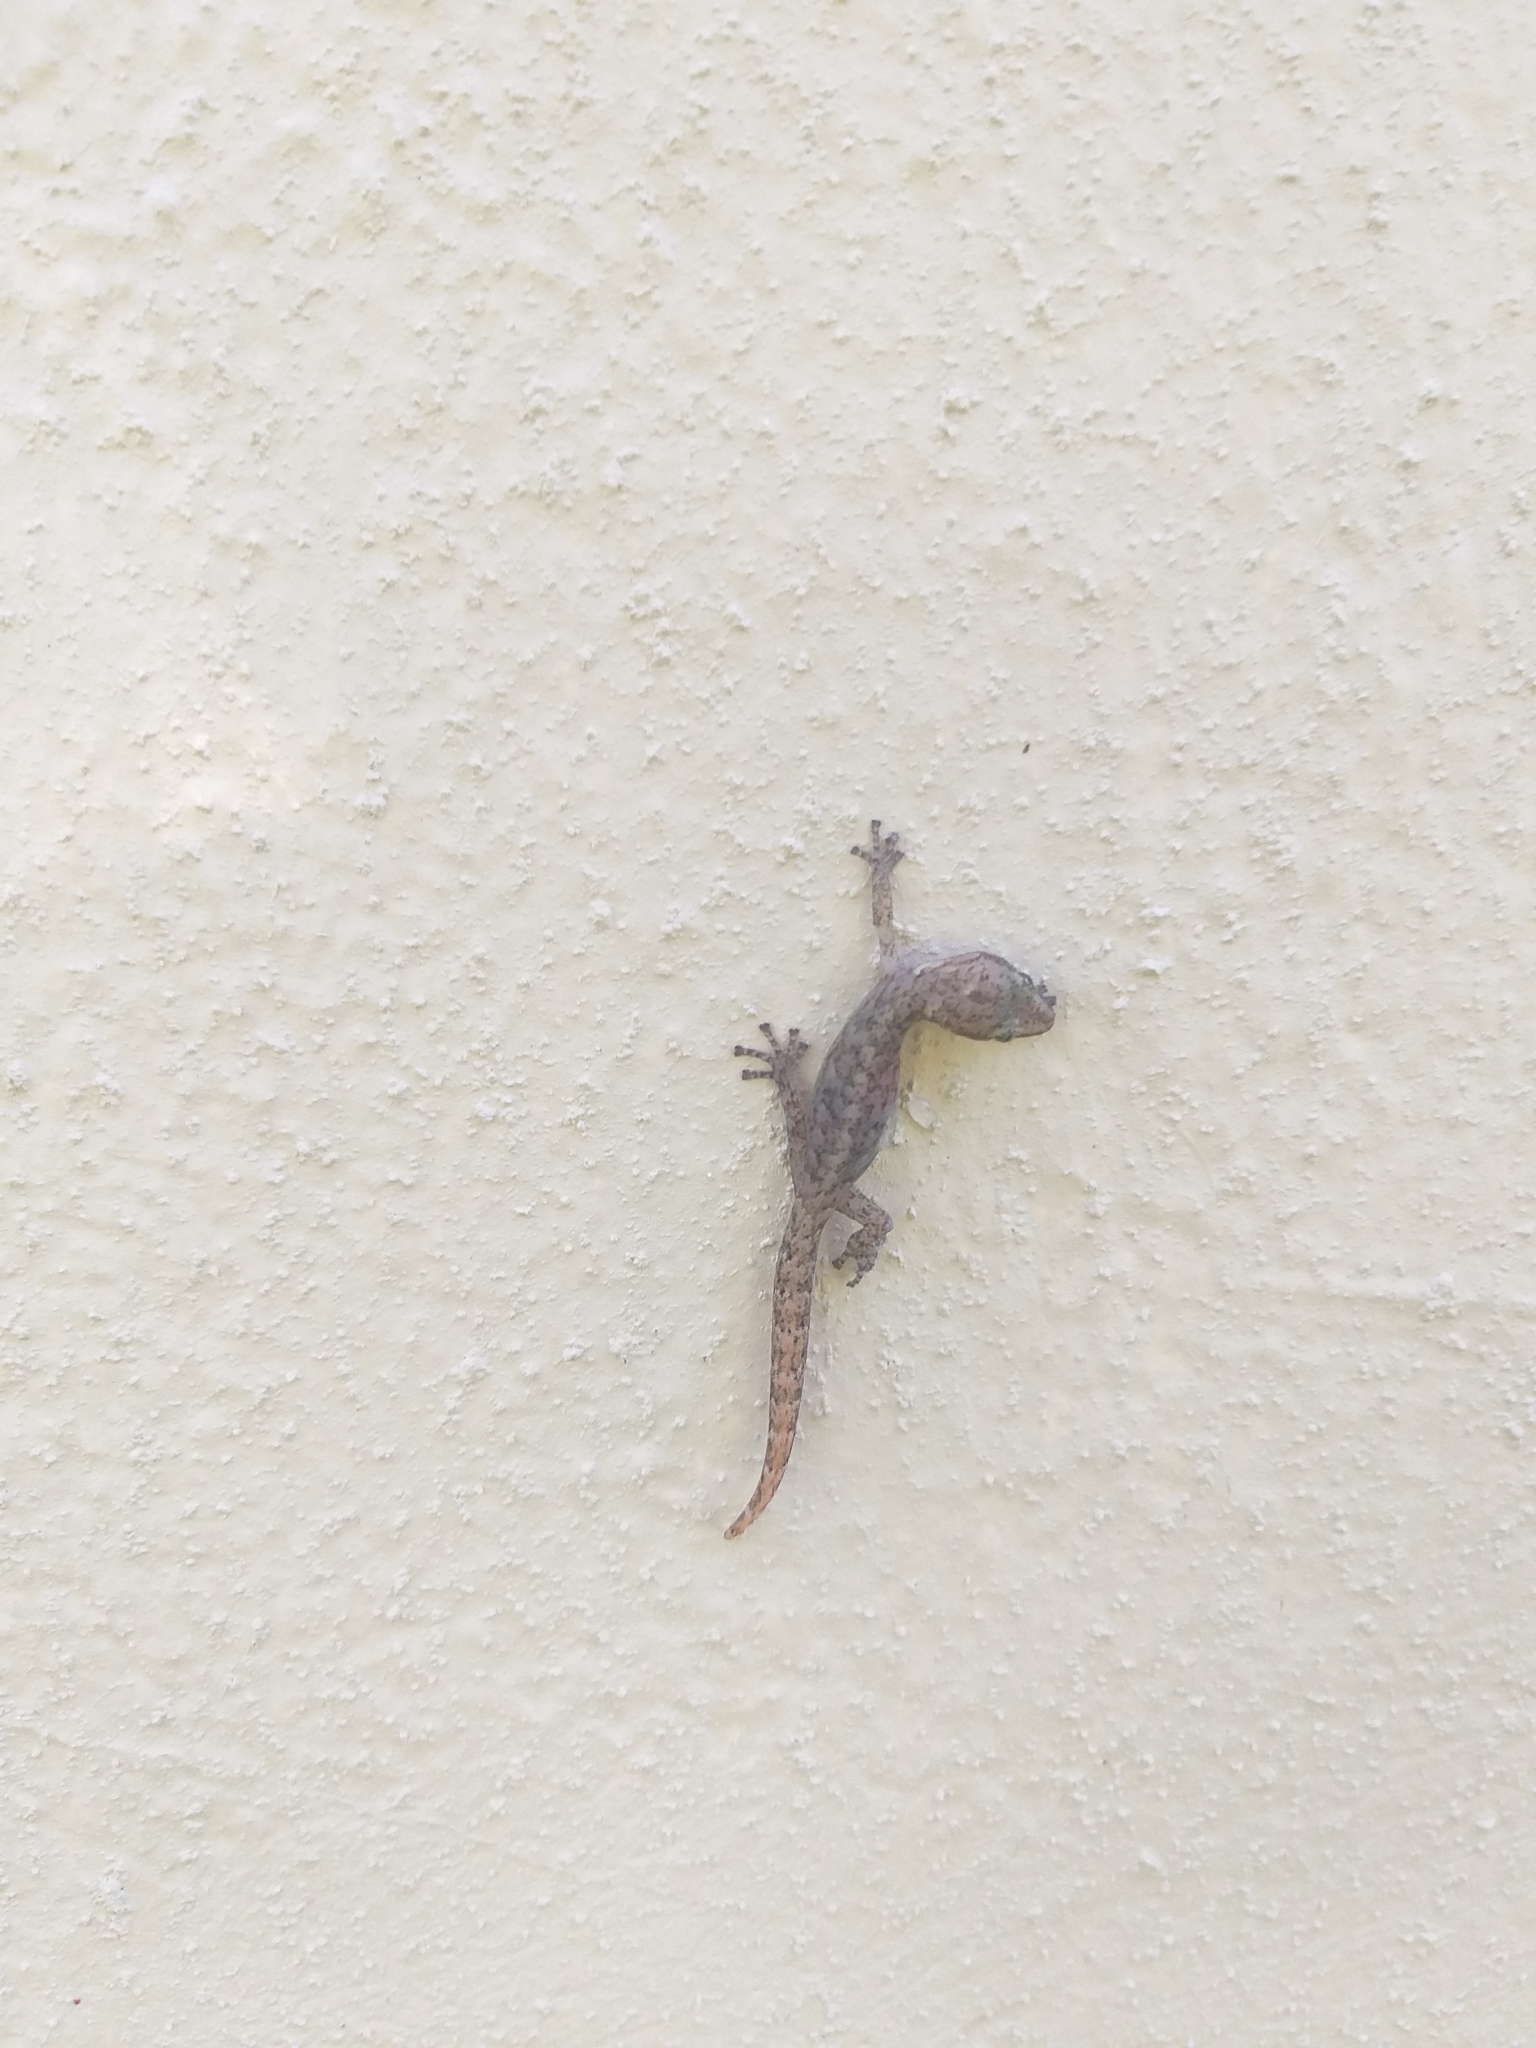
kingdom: Animalia
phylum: Chordata
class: Squamata
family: Gekkonidae
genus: Afrogecko
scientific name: Afrogecko porphyreus
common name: Marbled leaf-toed gecko
